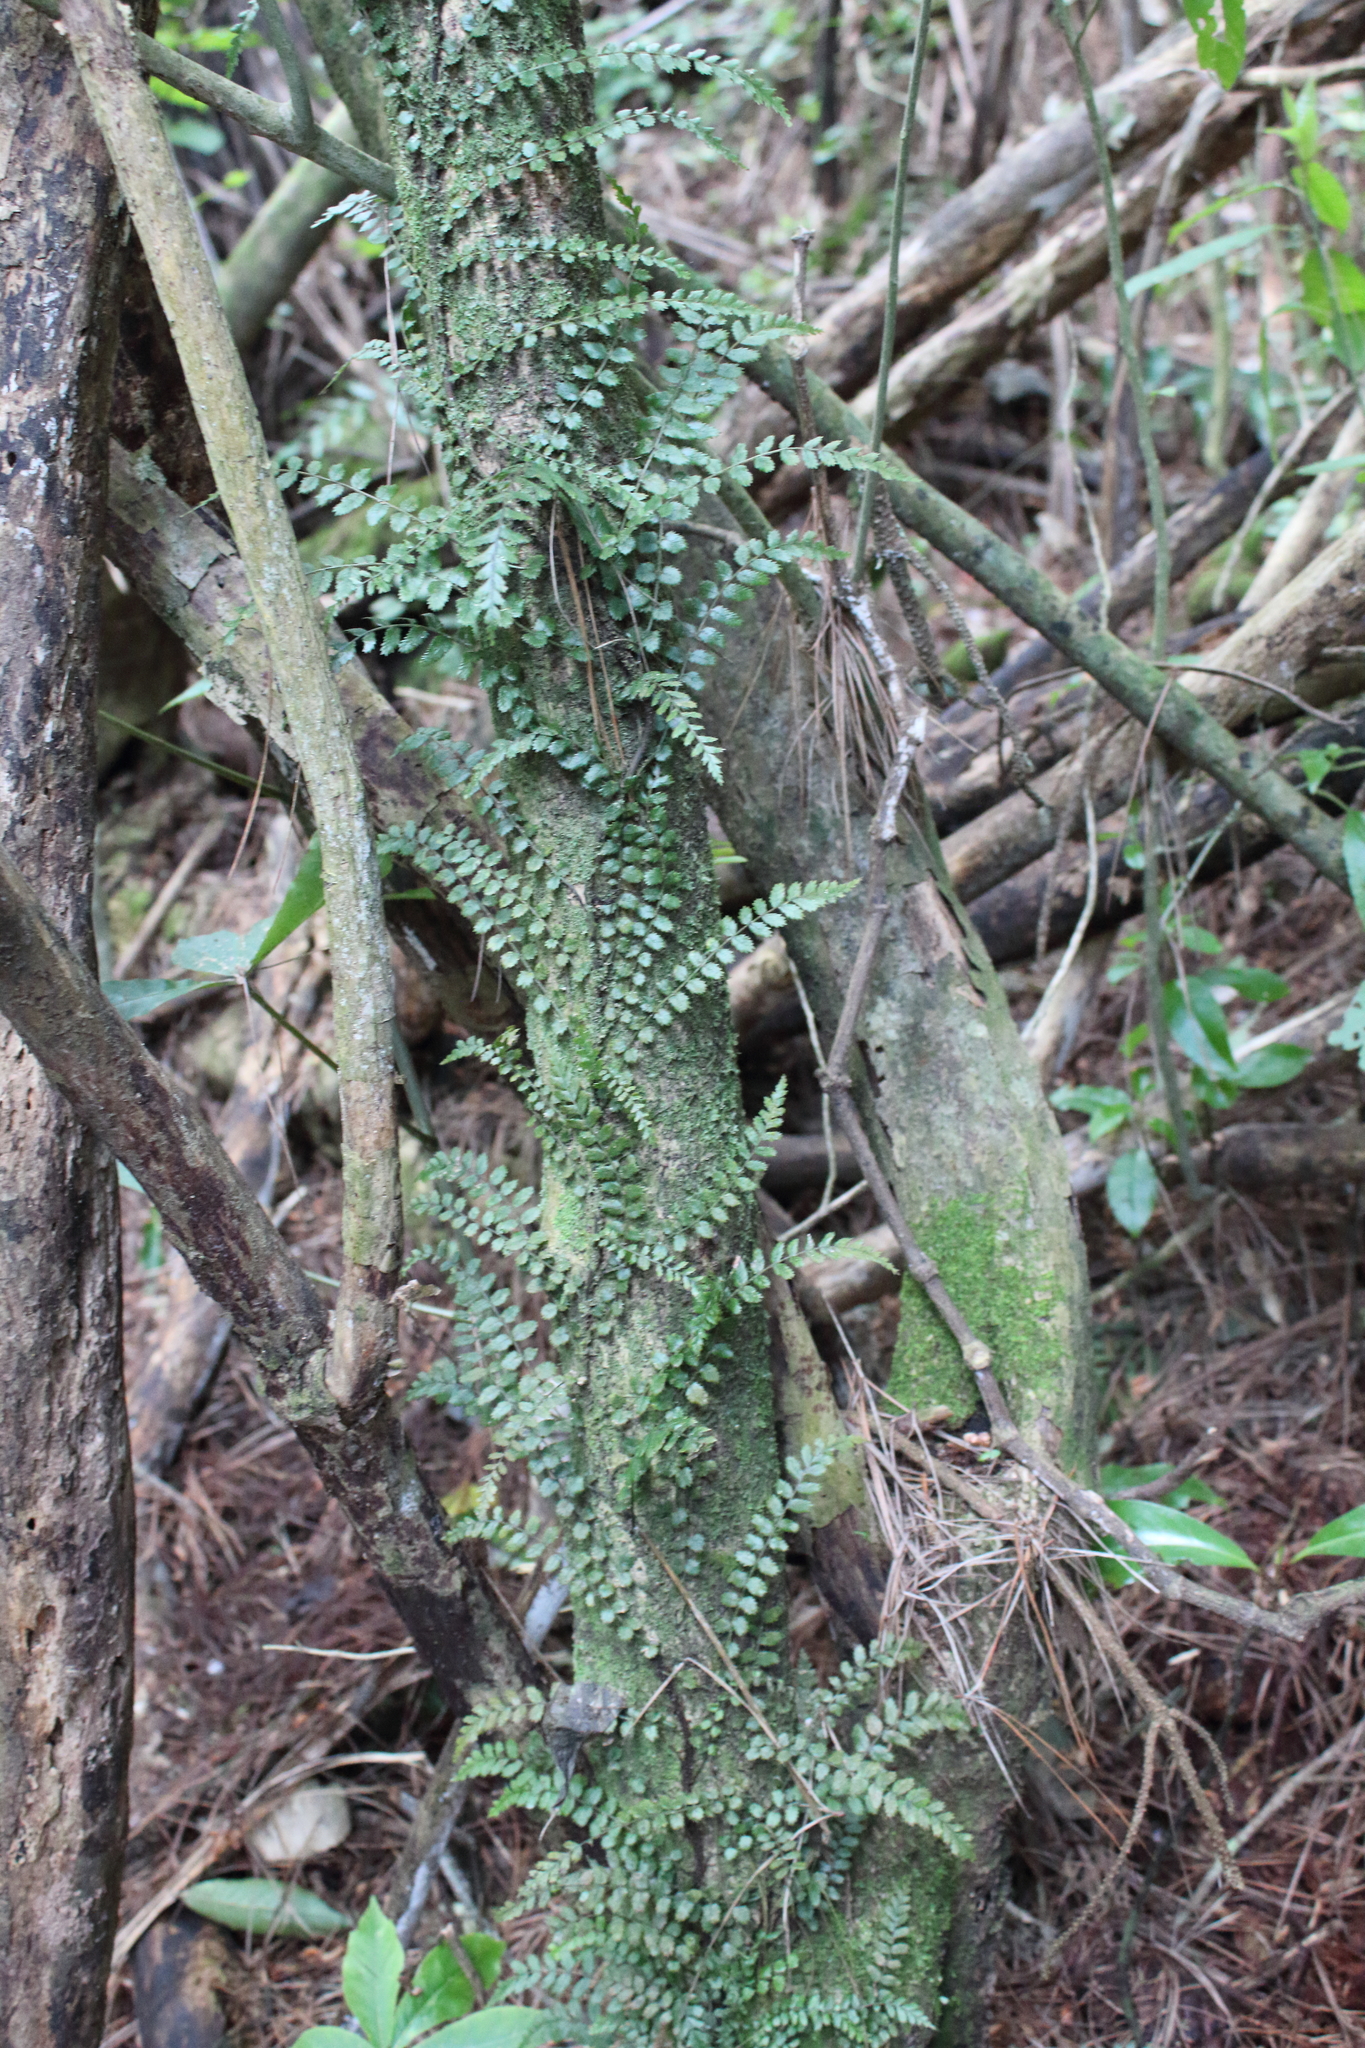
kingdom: Plantae
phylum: Tracheophyta
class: Polypodiopsida
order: Polypodiales
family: Blechnaceae
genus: Icarus
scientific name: Icarus filiformis
